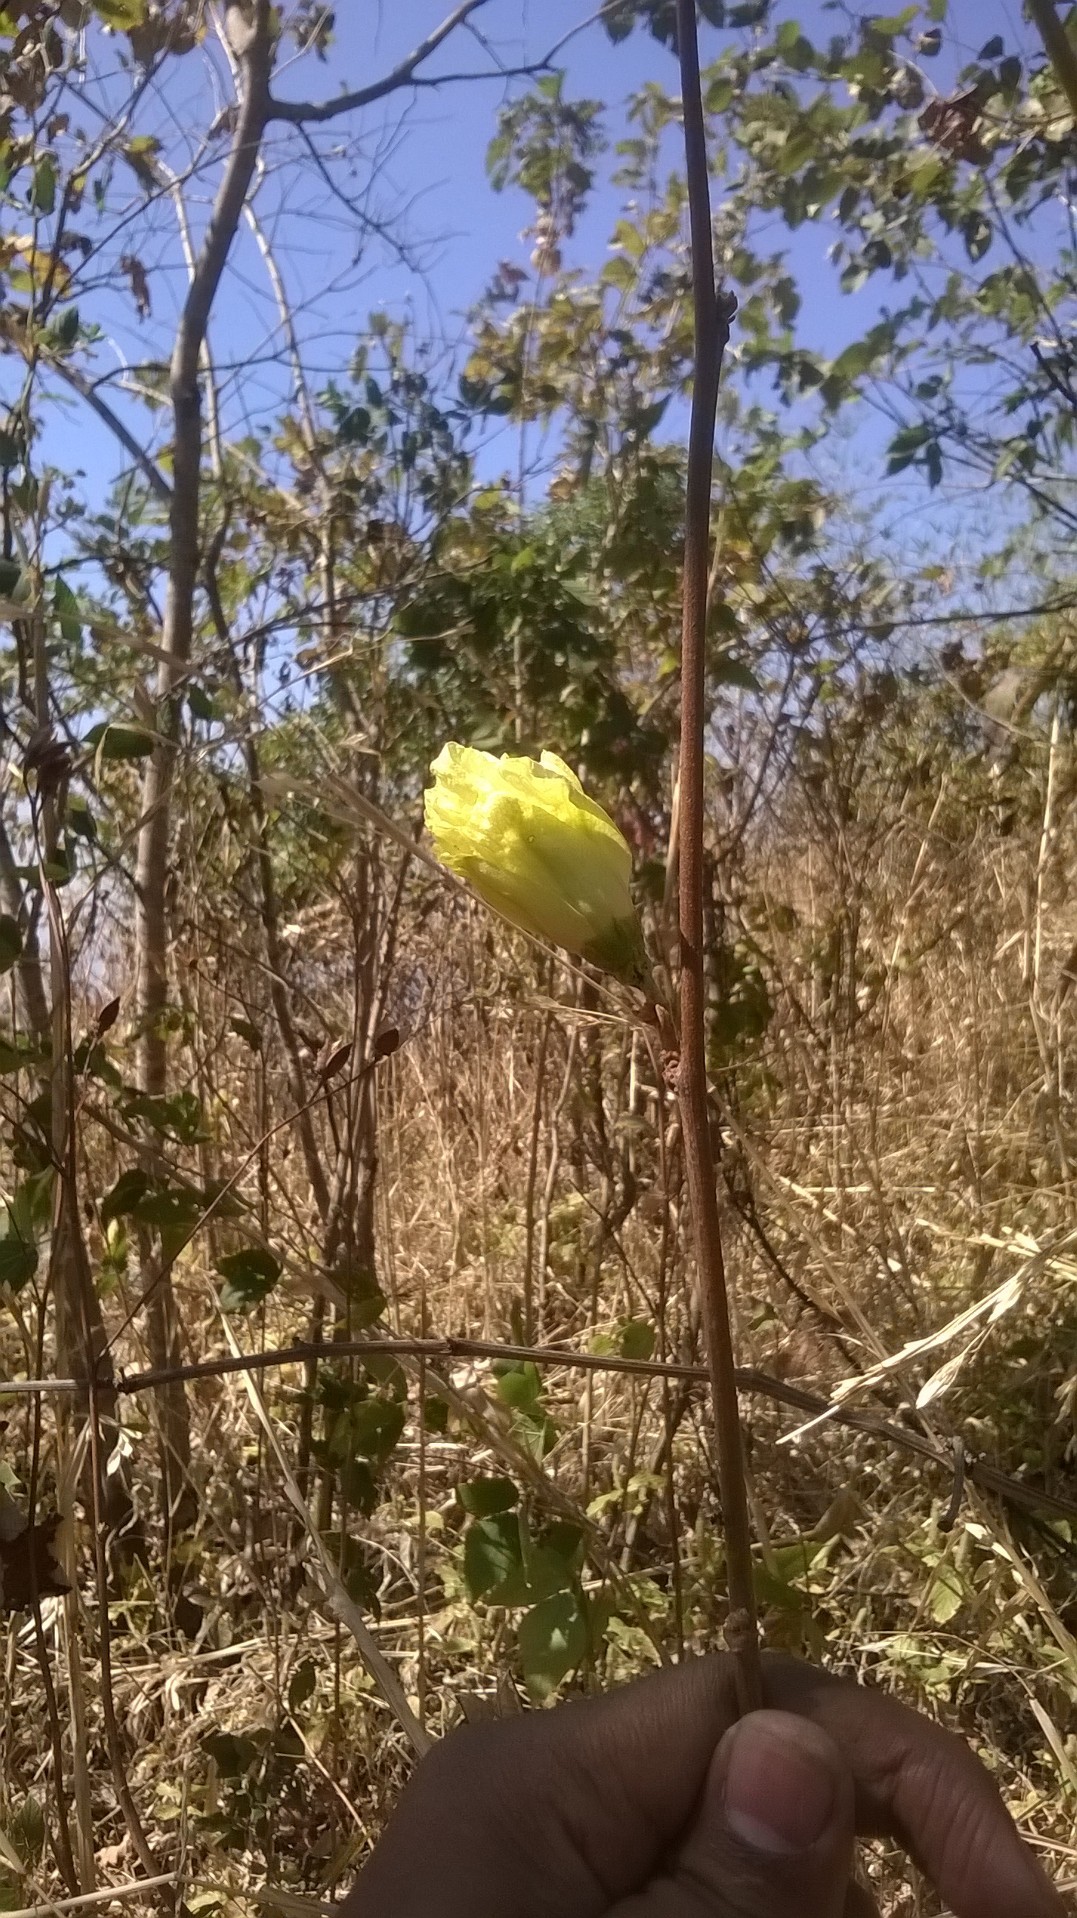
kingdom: Plantae
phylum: Tracheophyta
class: Magnoliopsida
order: Malvales
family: Malvaceae
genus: Thespesia
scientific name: Thespesia lampas
